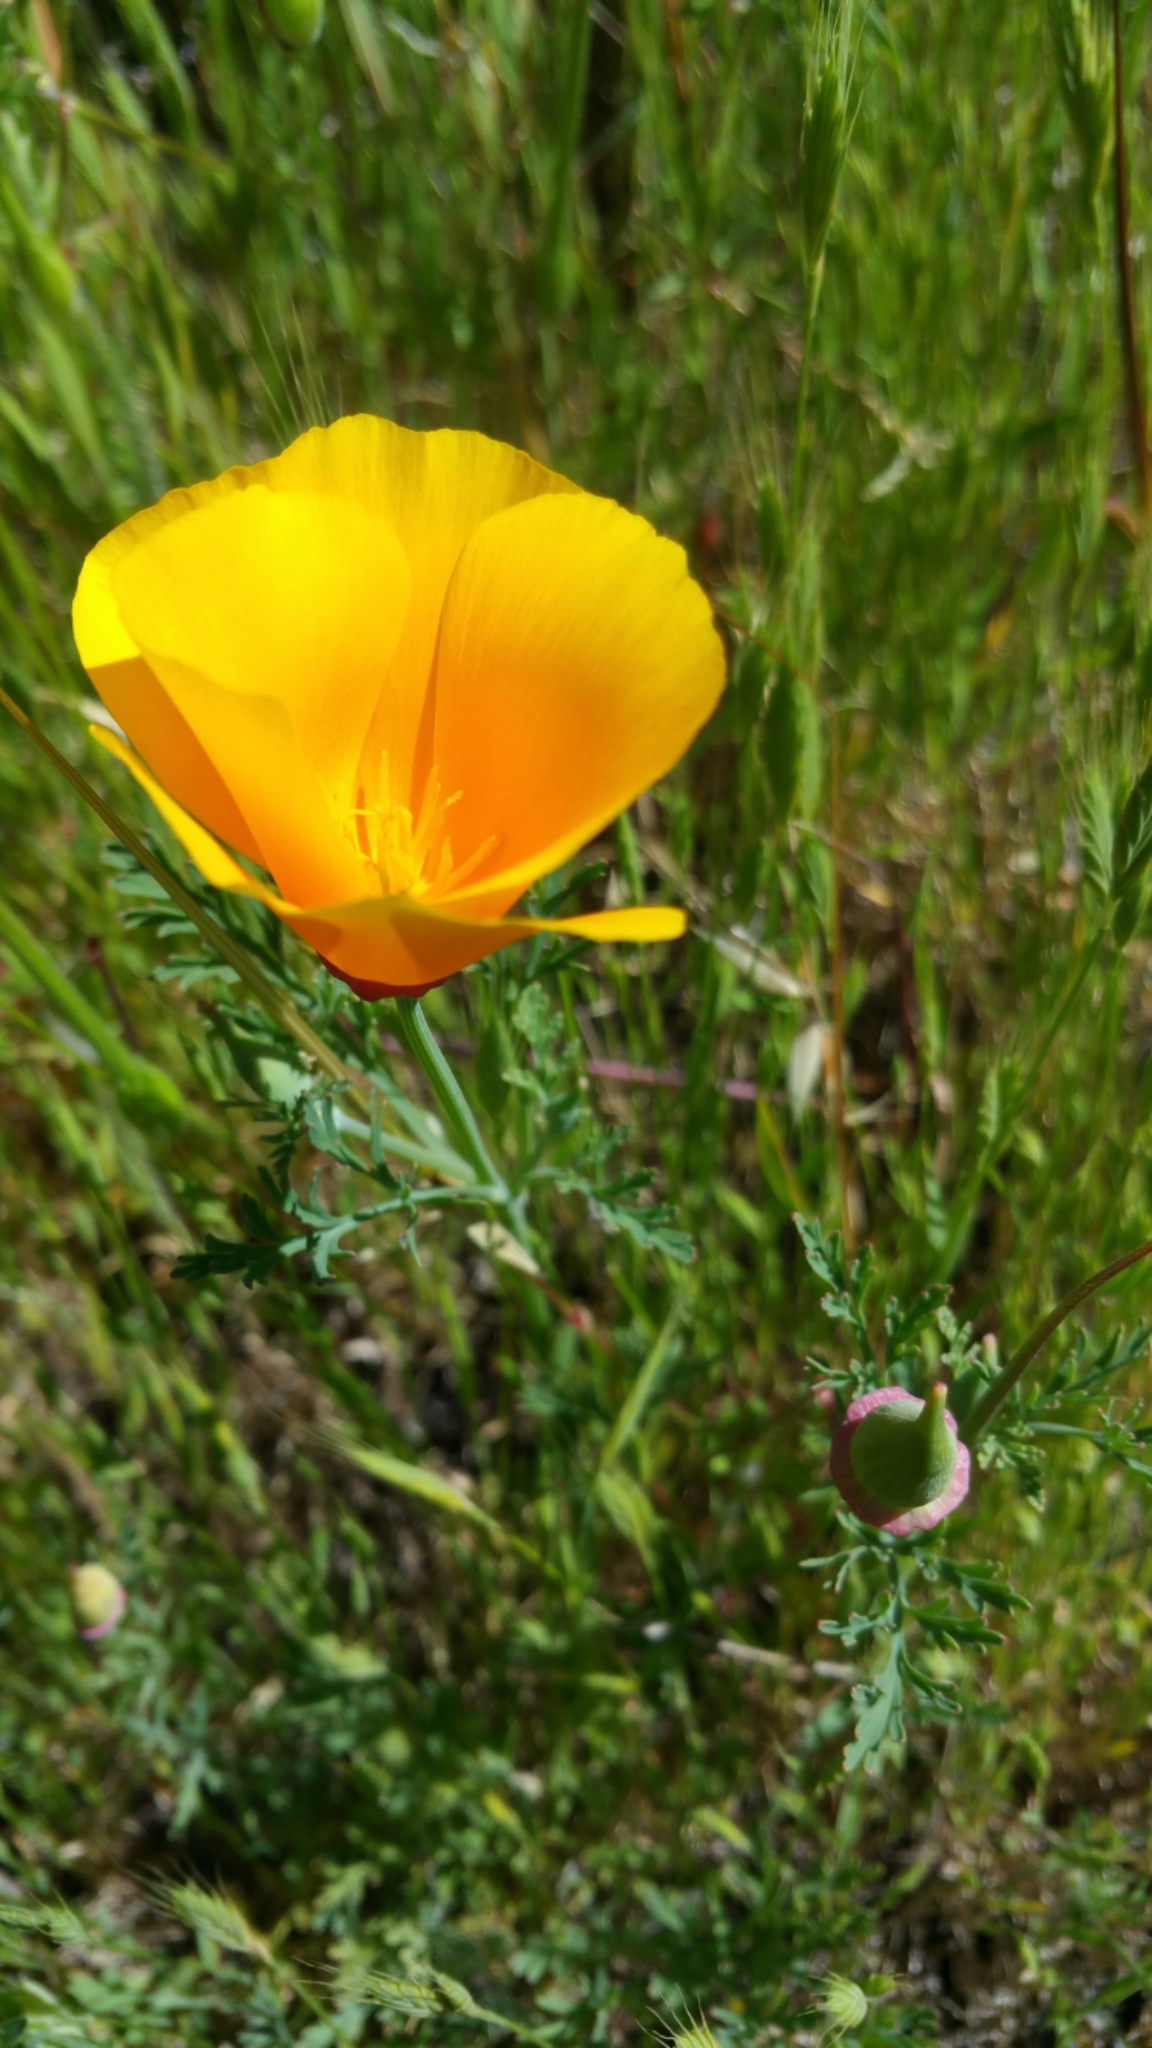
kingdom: Plantae
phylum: Tracheophyta
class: Magnoliopsida
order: Ranunculales
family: Papaveraceae
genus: Eschscholzia
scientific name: Eschscholzia californica
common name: California poppy
